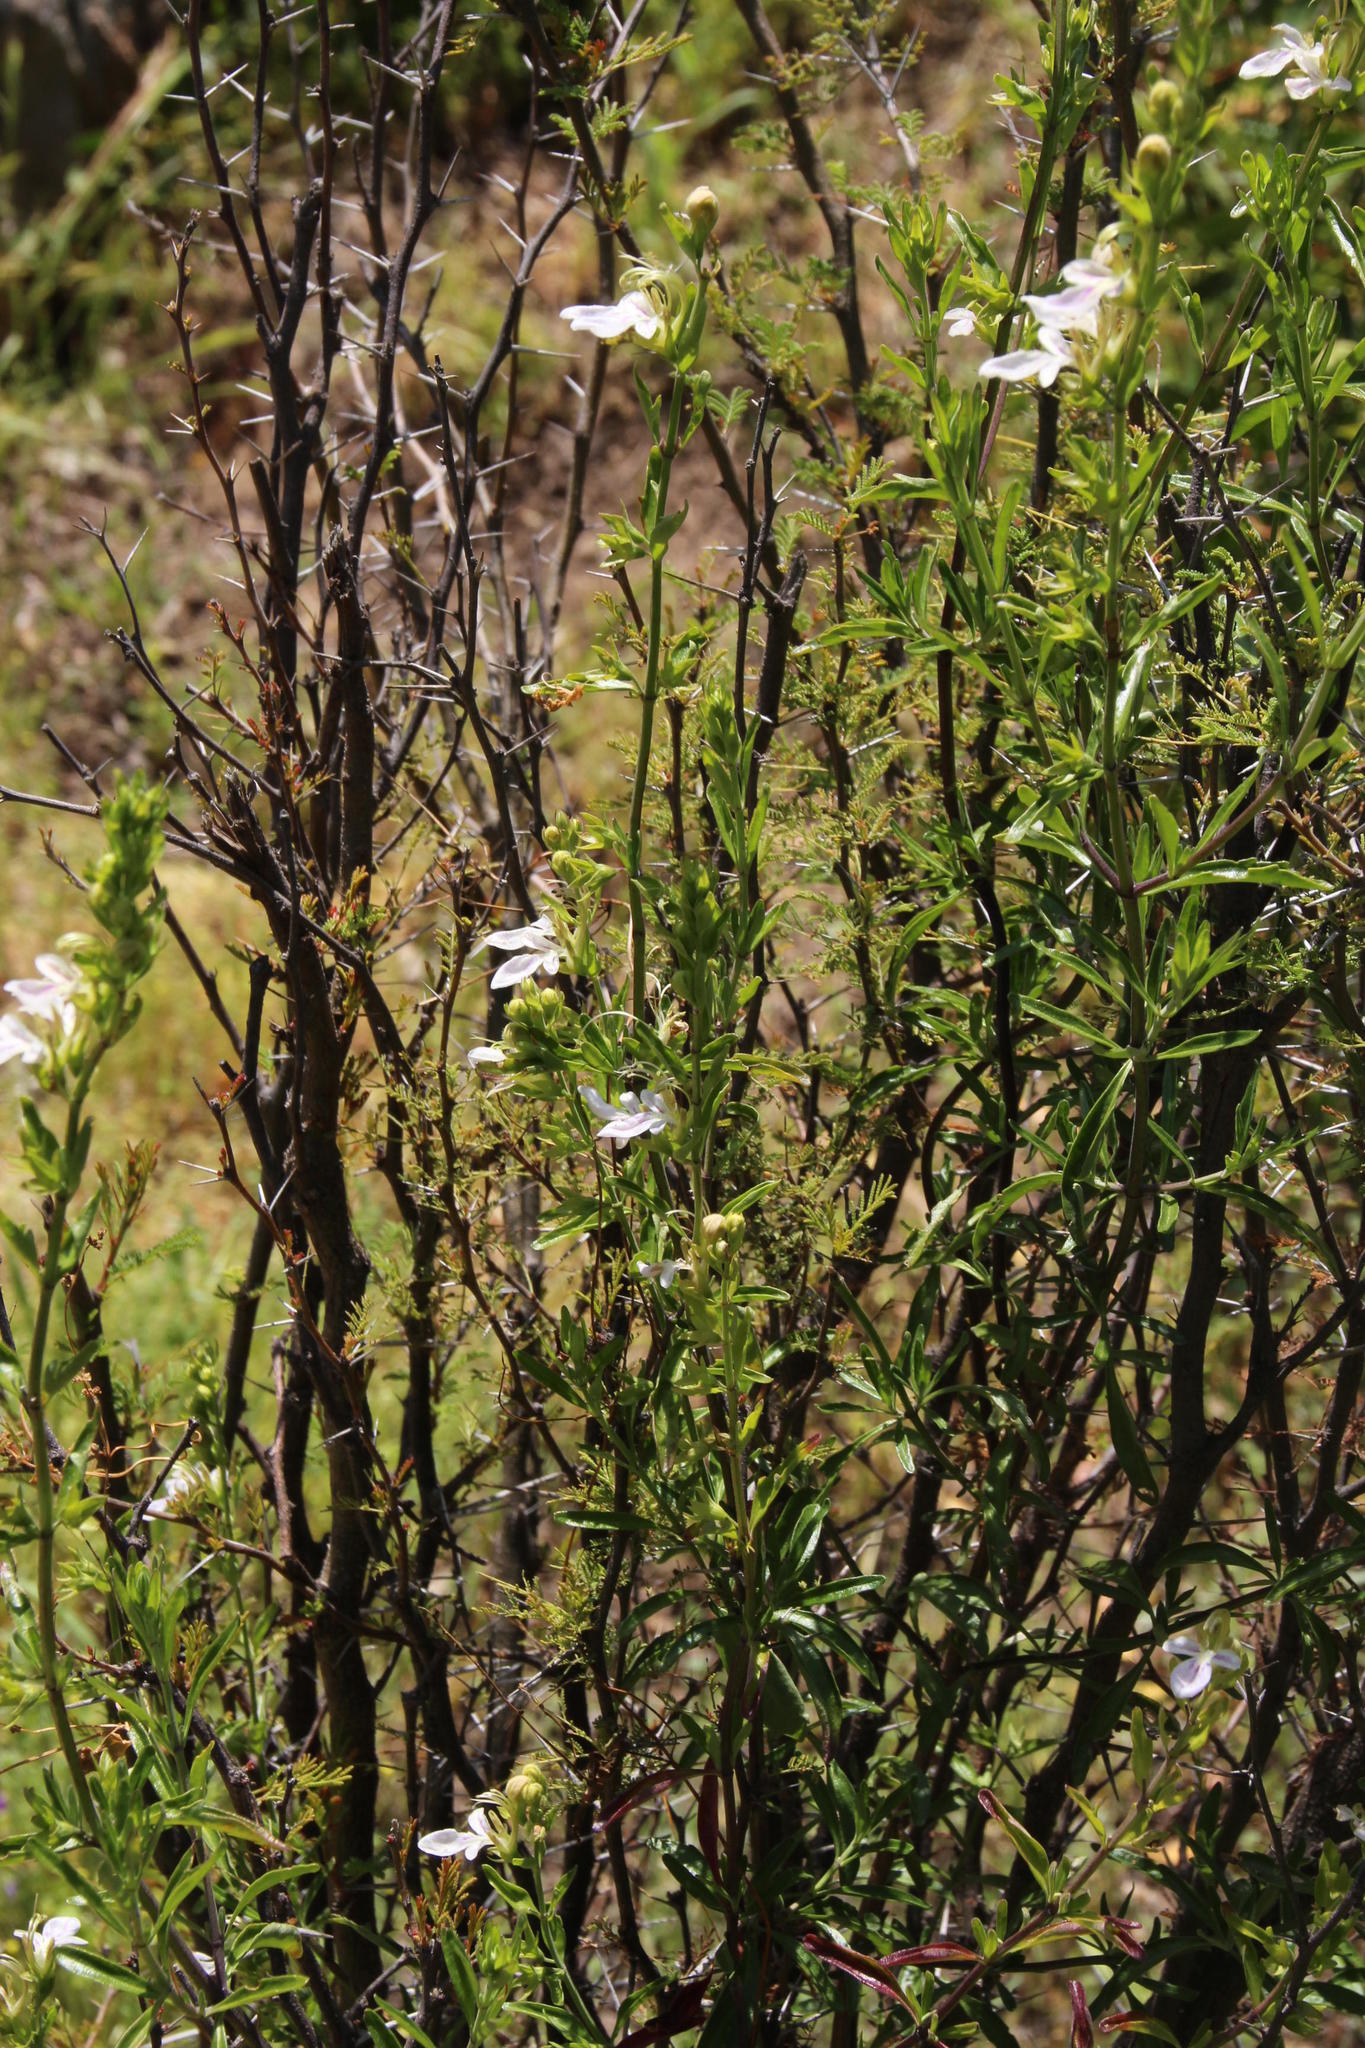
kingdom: Plantae
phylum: Tracheophyta
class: Magnoliopsida
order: Lamiales
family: Lamiaceae
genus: Teucrium
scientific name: Teucrium bicolor
